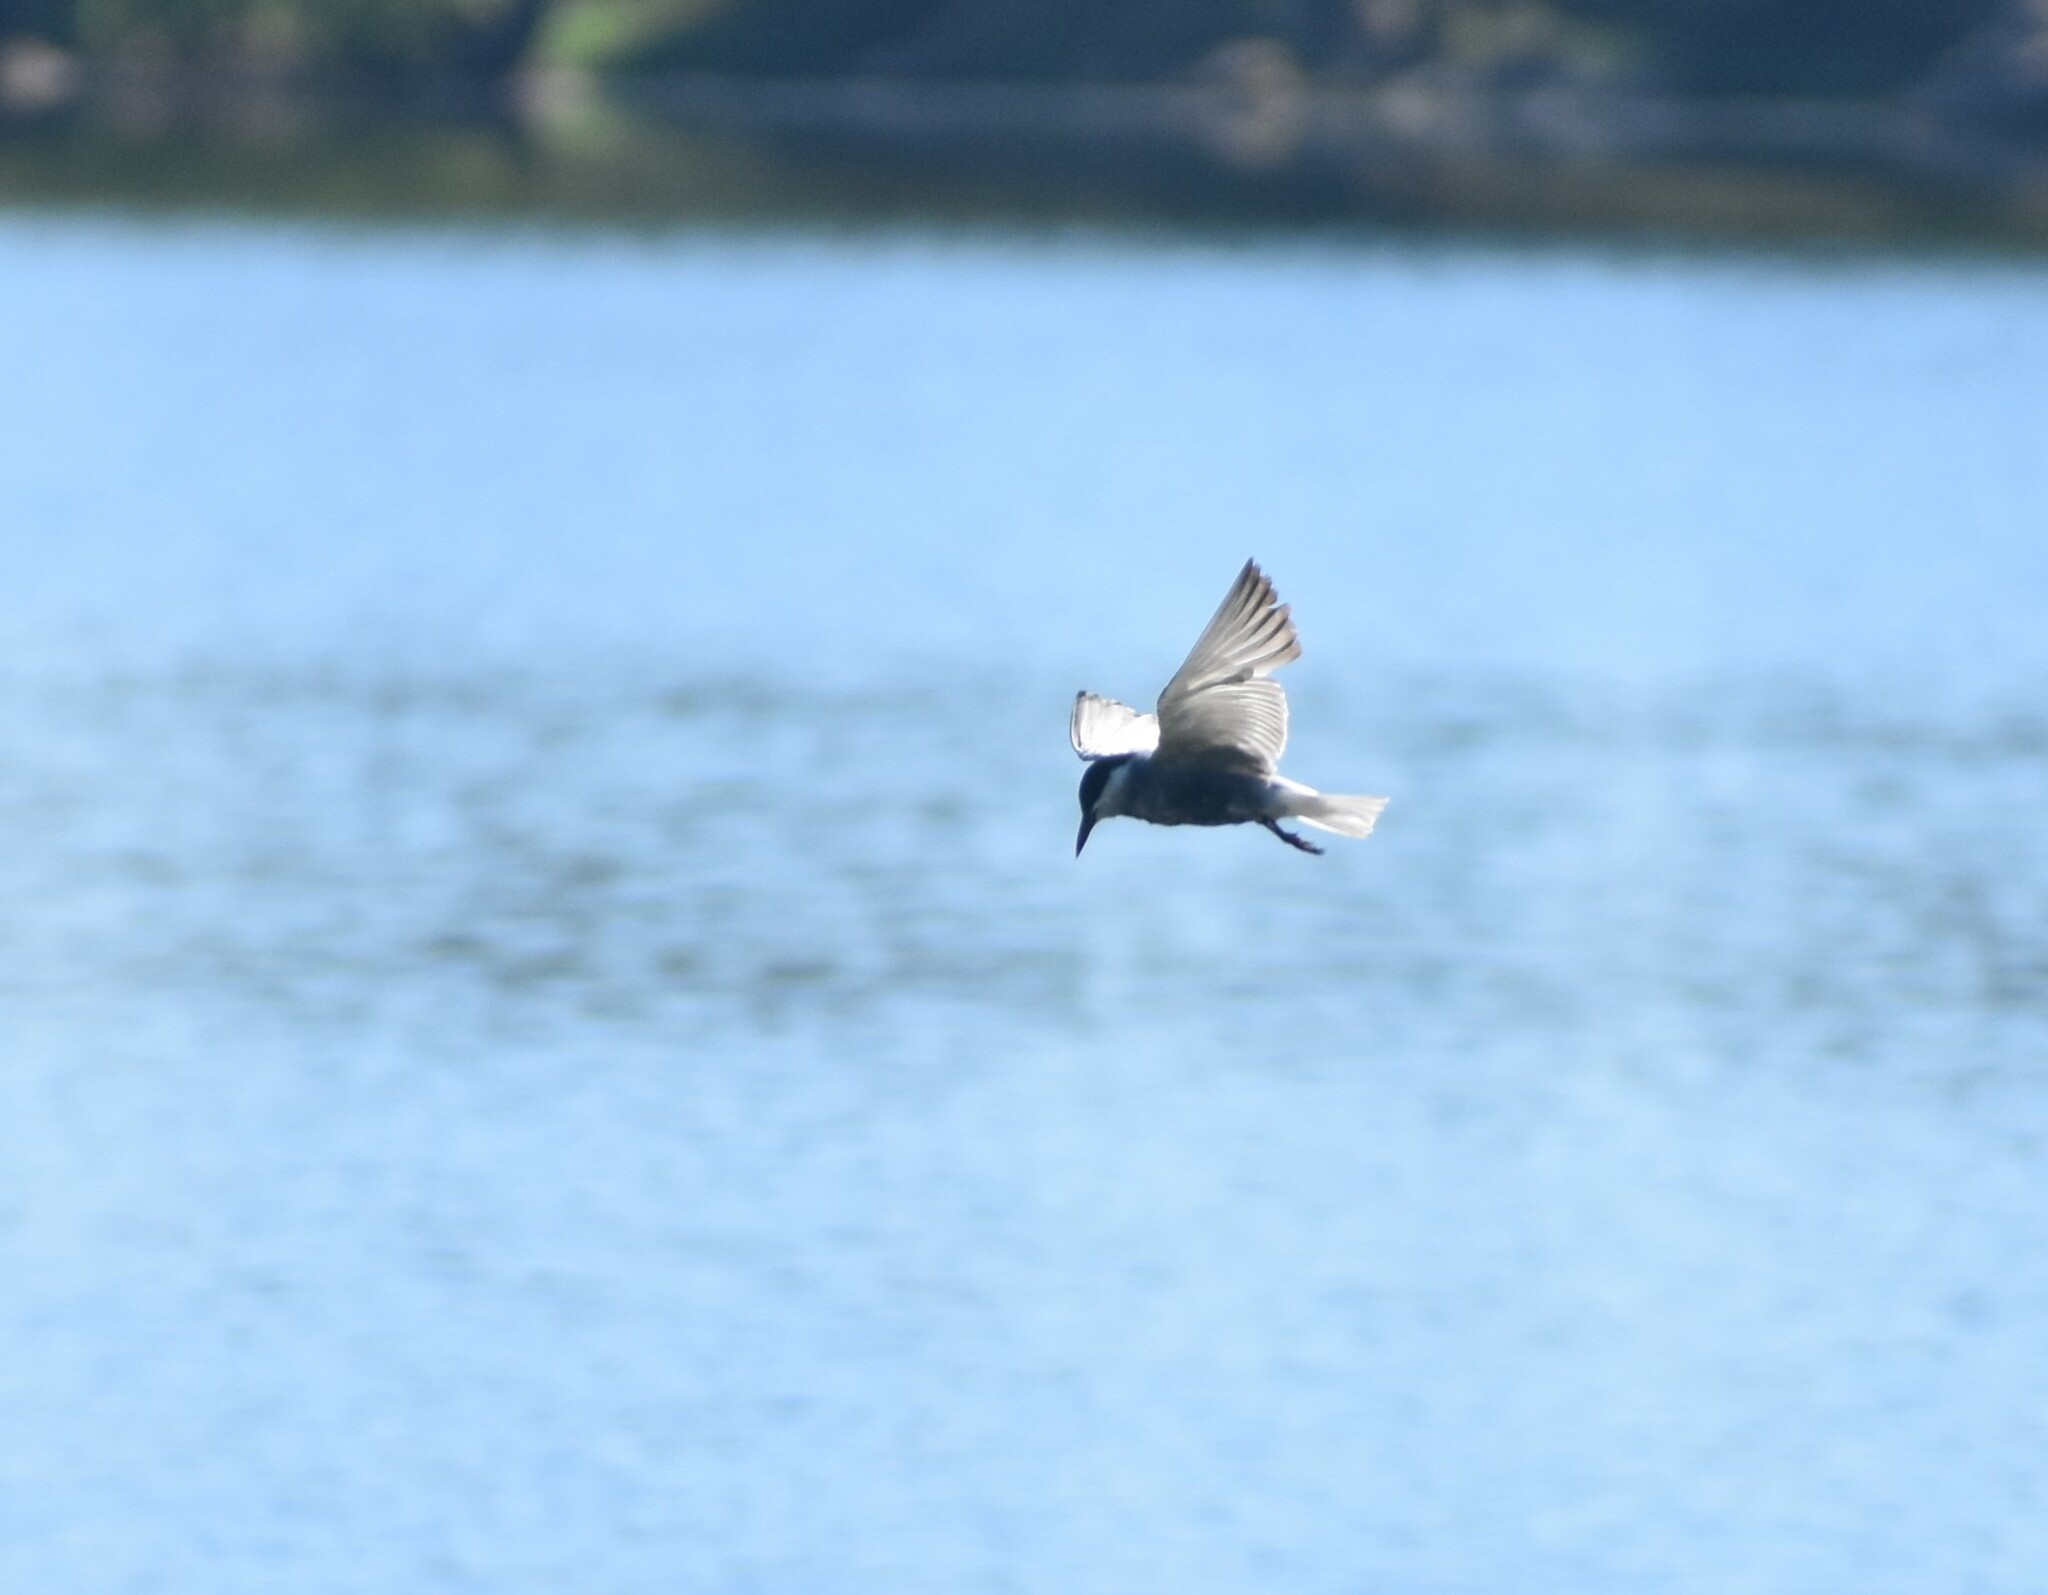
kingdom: Animalia
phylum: Chordata
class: Aves
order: Charadriiformes
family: Laridae
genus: Chlidonias
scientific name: Chlidonias hybrida
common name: Whiskered tern
